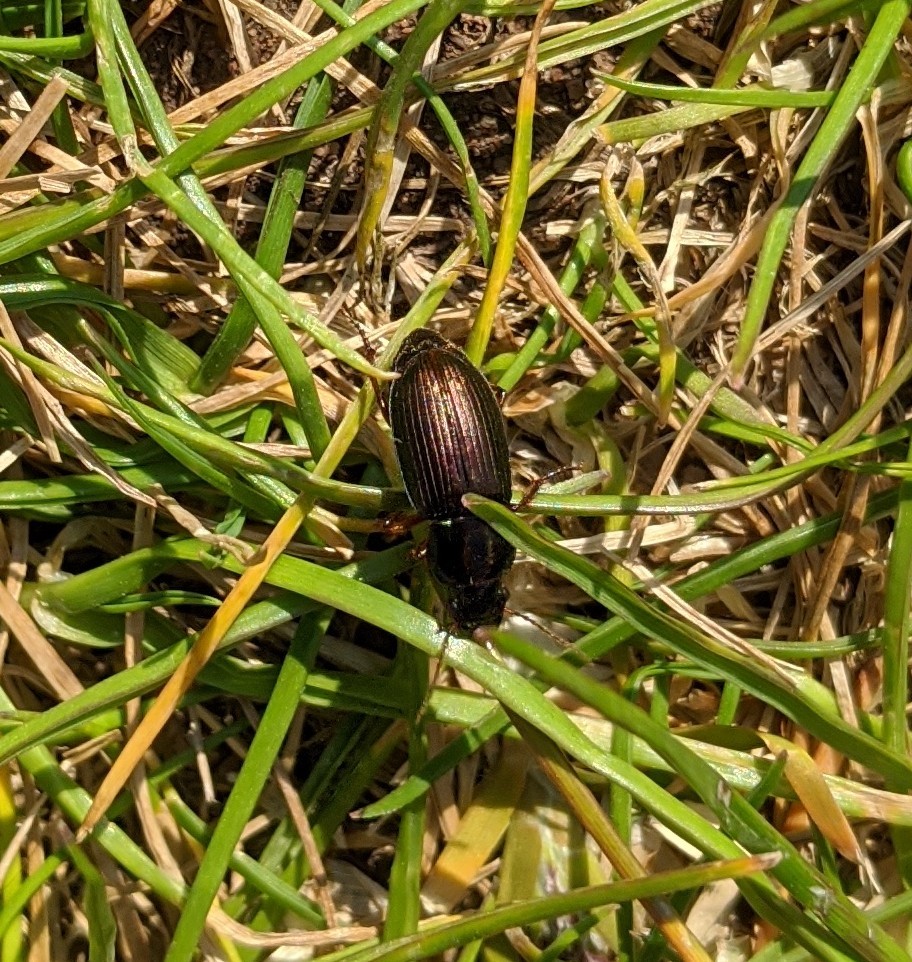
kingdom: Animalia
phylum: Arthropoda
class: Insecta
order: Coleoptera
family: Carabidae
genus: Harpalus
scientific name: Harpalus affinis
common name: Polychrome harp ground beetle
